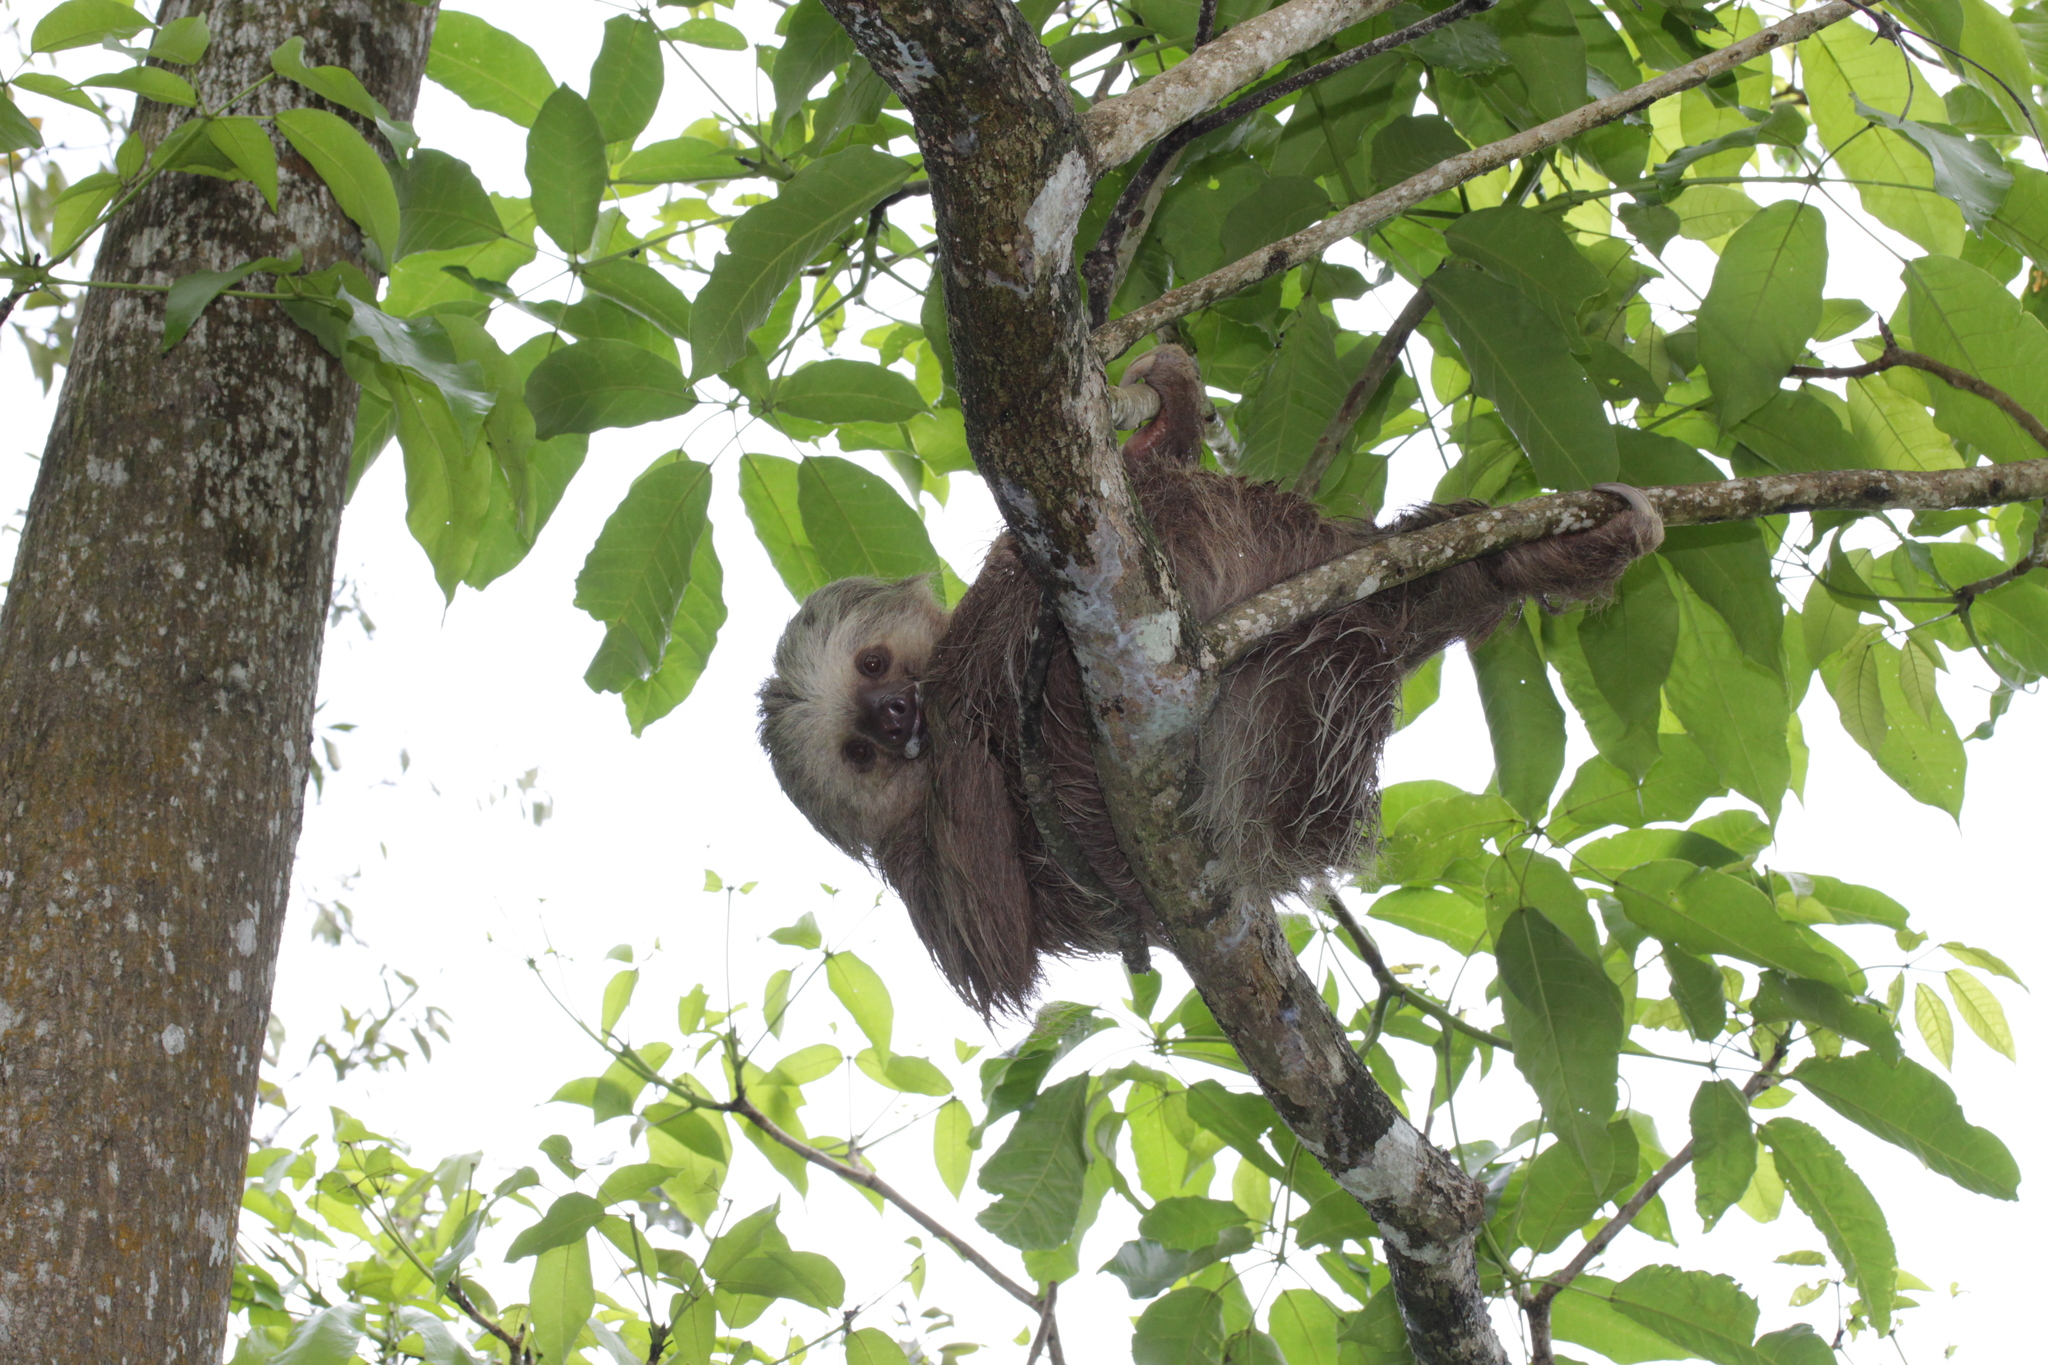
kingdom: Animalia
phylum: Chordata
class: Mammalia
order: Pilosa
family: Megalonychidae
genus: Choloepus
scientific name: Choloepus hoffmanni
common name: Hoffmann's two-toed sloth
